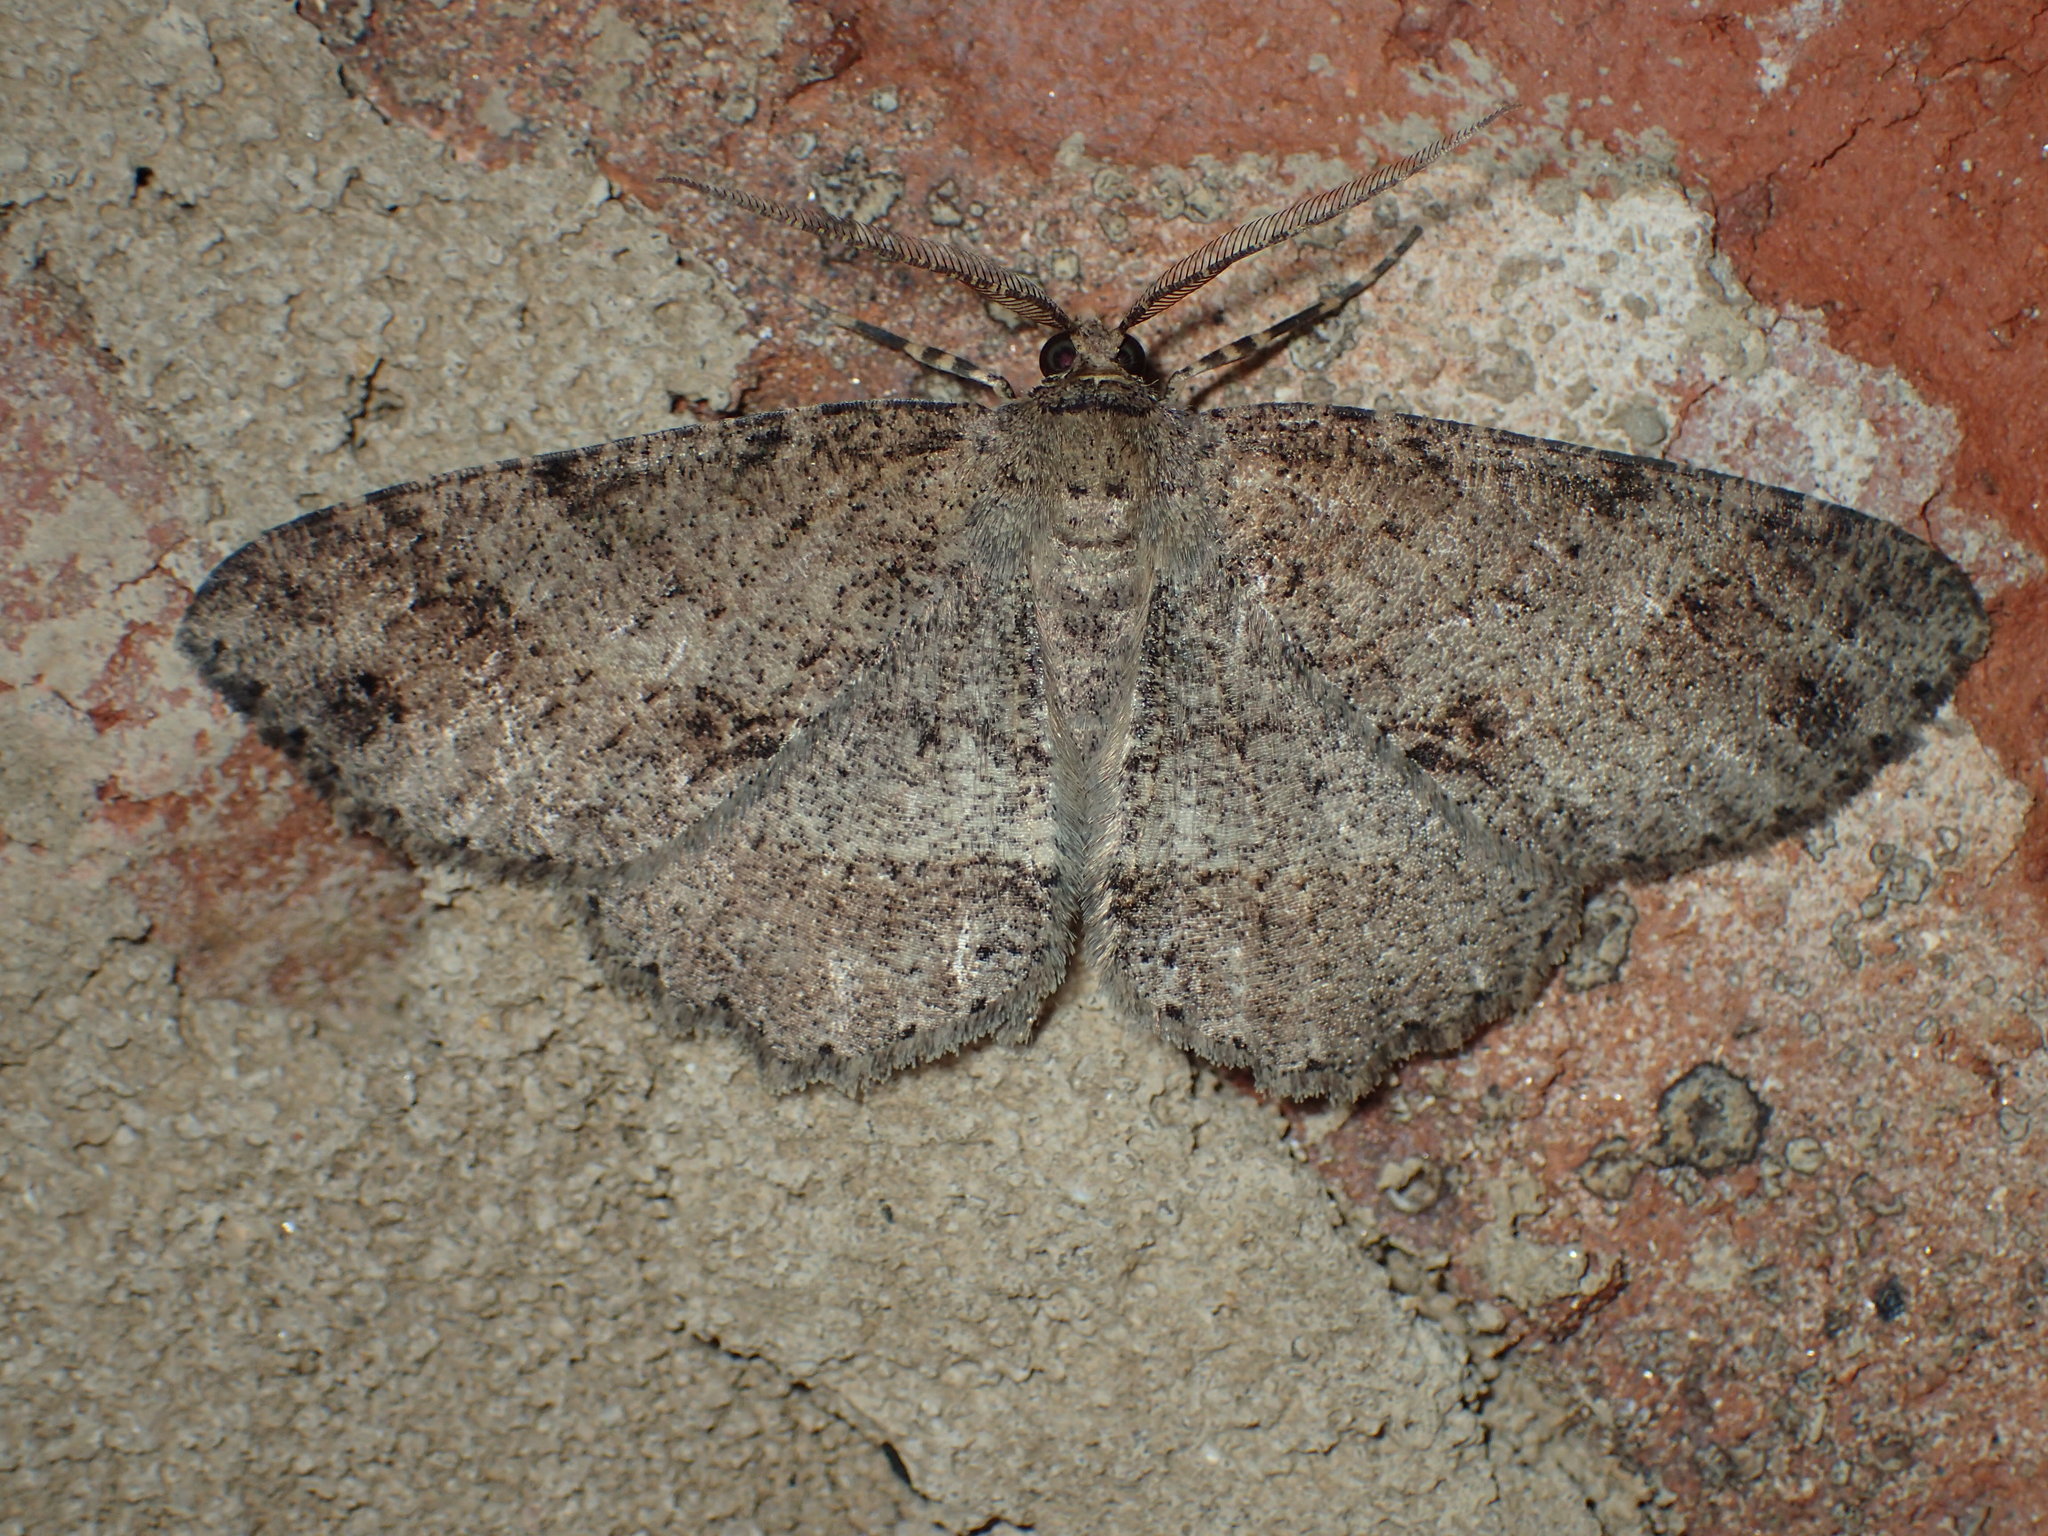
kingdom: Animalia
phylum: Arthropoda
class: Insecta
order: Lepidoptera
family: Geometridae
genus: Melanolophia
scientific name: Melanolophia canadaria
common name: Canadian melanolophia
